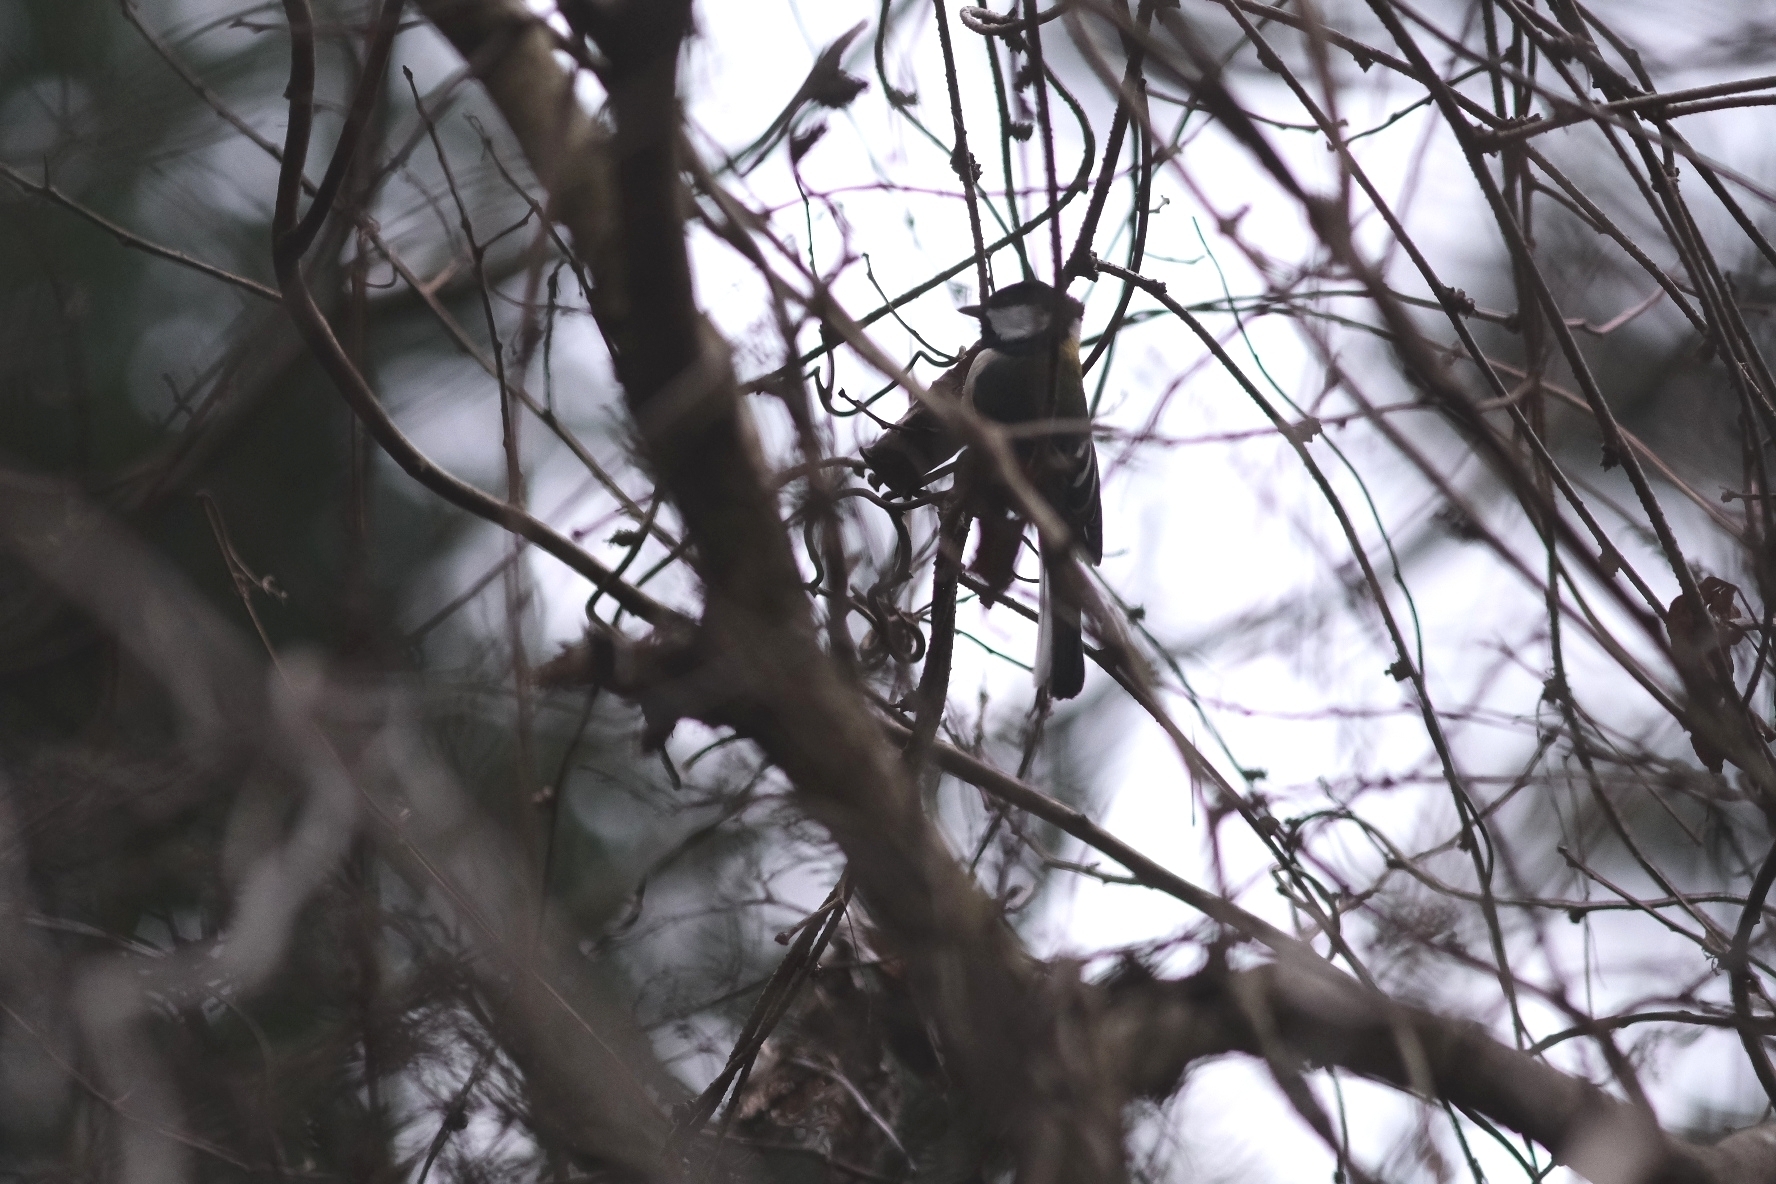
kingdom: Animalia
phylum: Chordata
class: Aves
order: Passeriformes
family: Paridae
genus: Parus
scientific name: Parus minor
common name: Japanese tit
